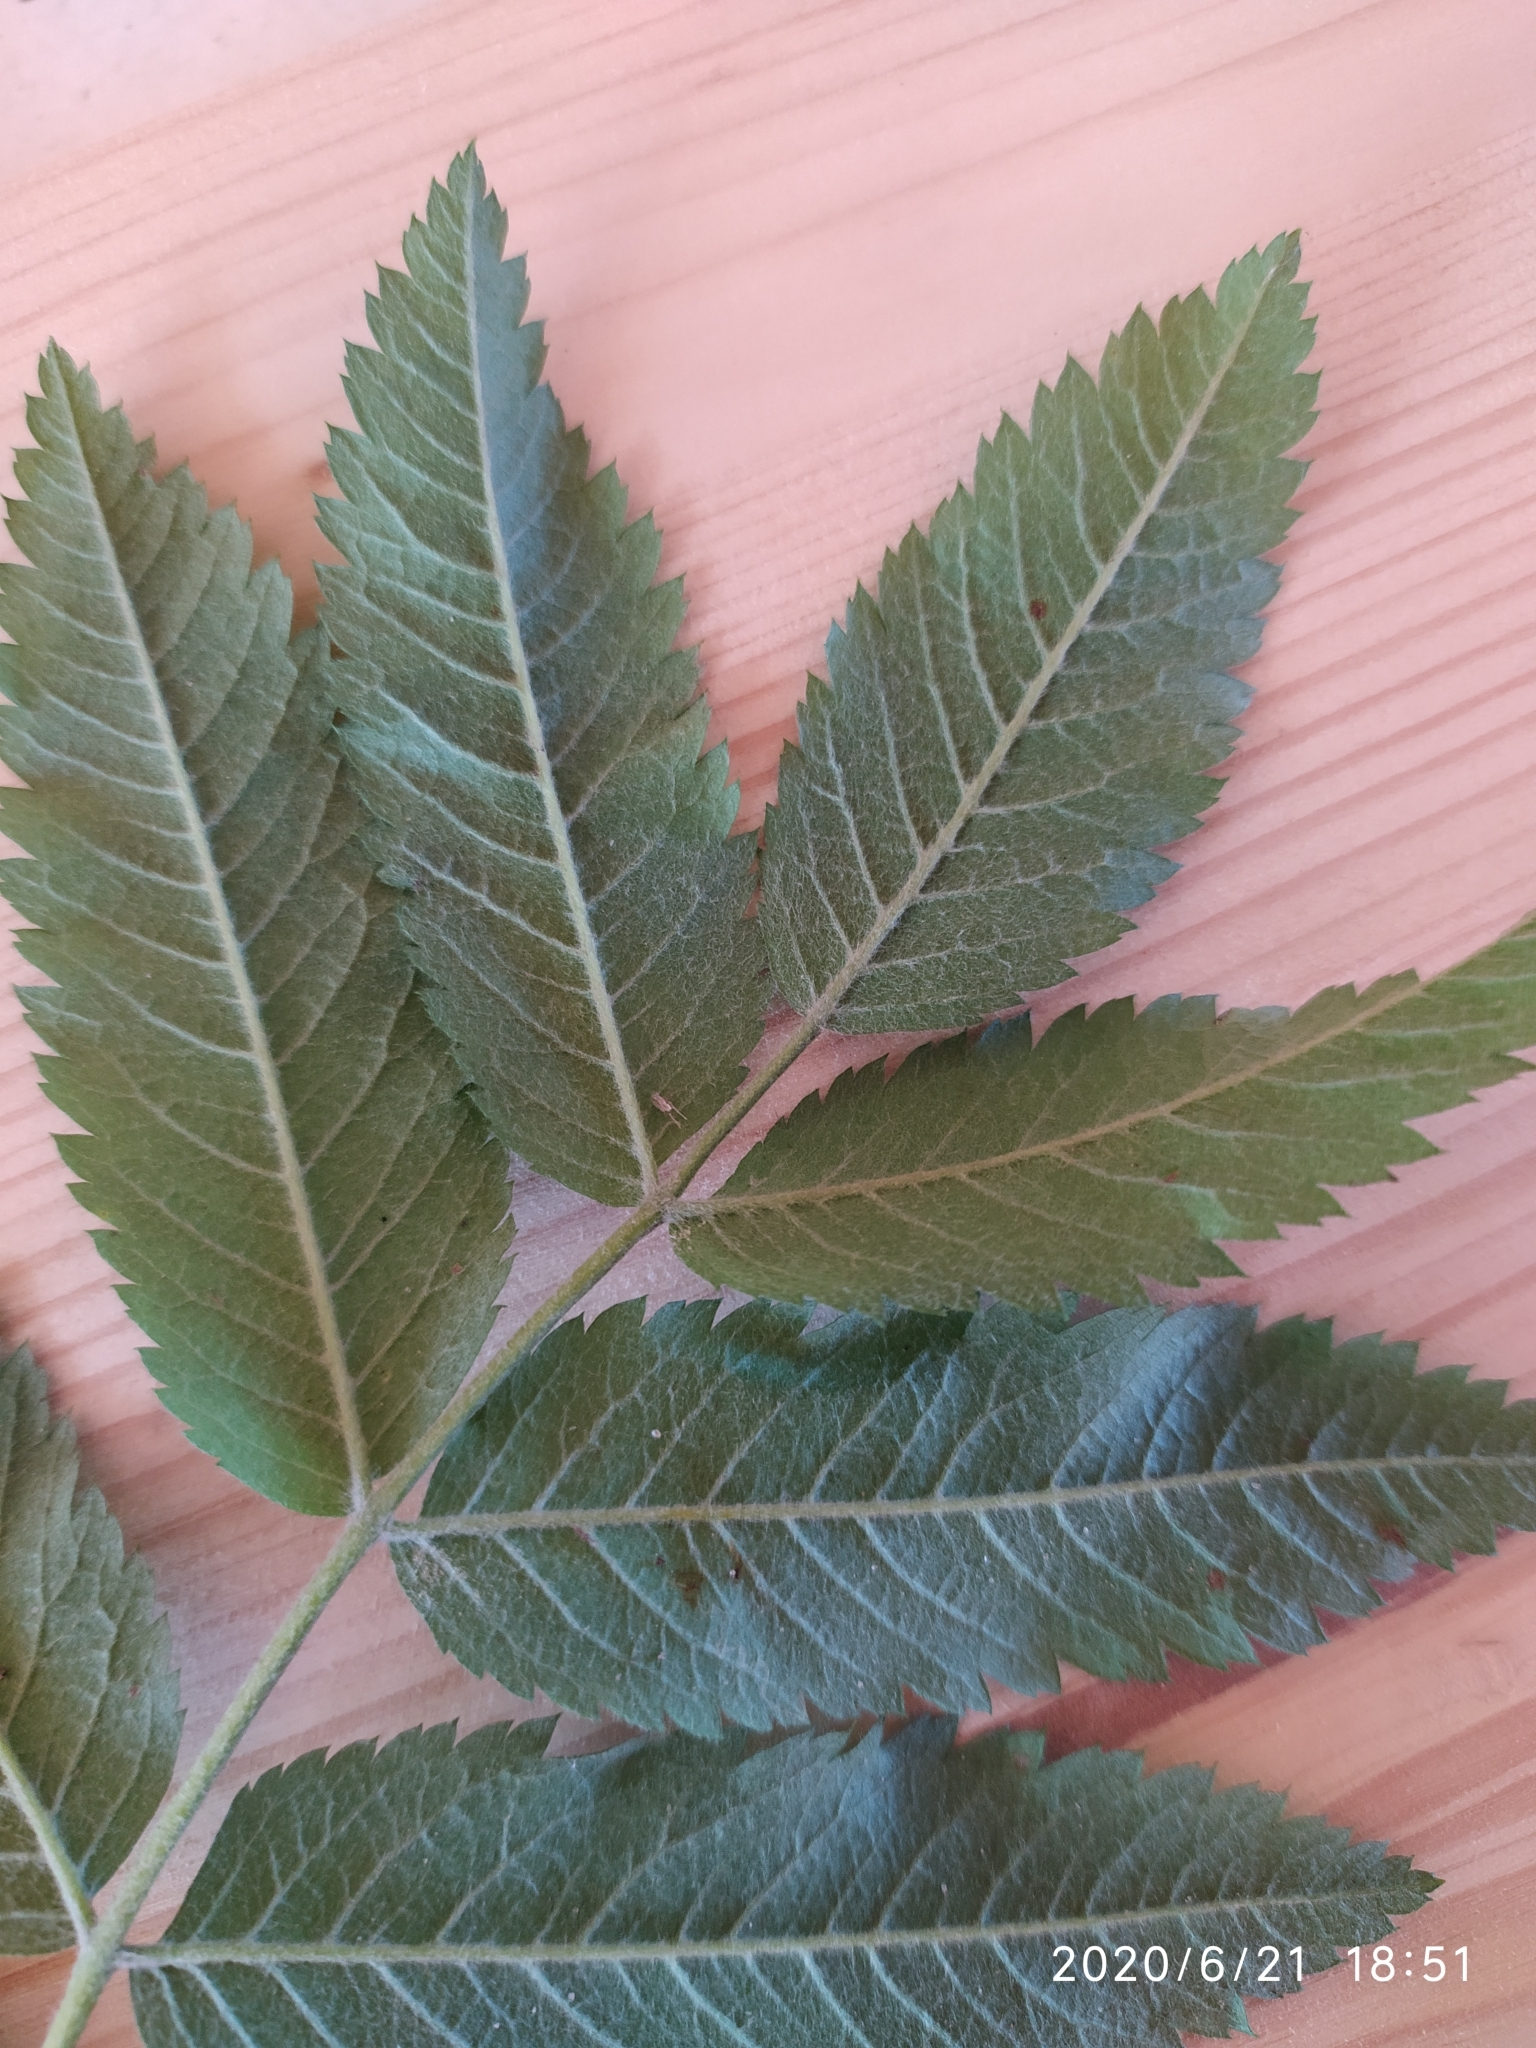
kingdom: Plantae
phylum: Tracheophyta
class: Magnoliopsida
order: Rosales
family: Rosaceae
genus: Sorbus
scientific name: Sorbus aucuparia
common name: Rowan
